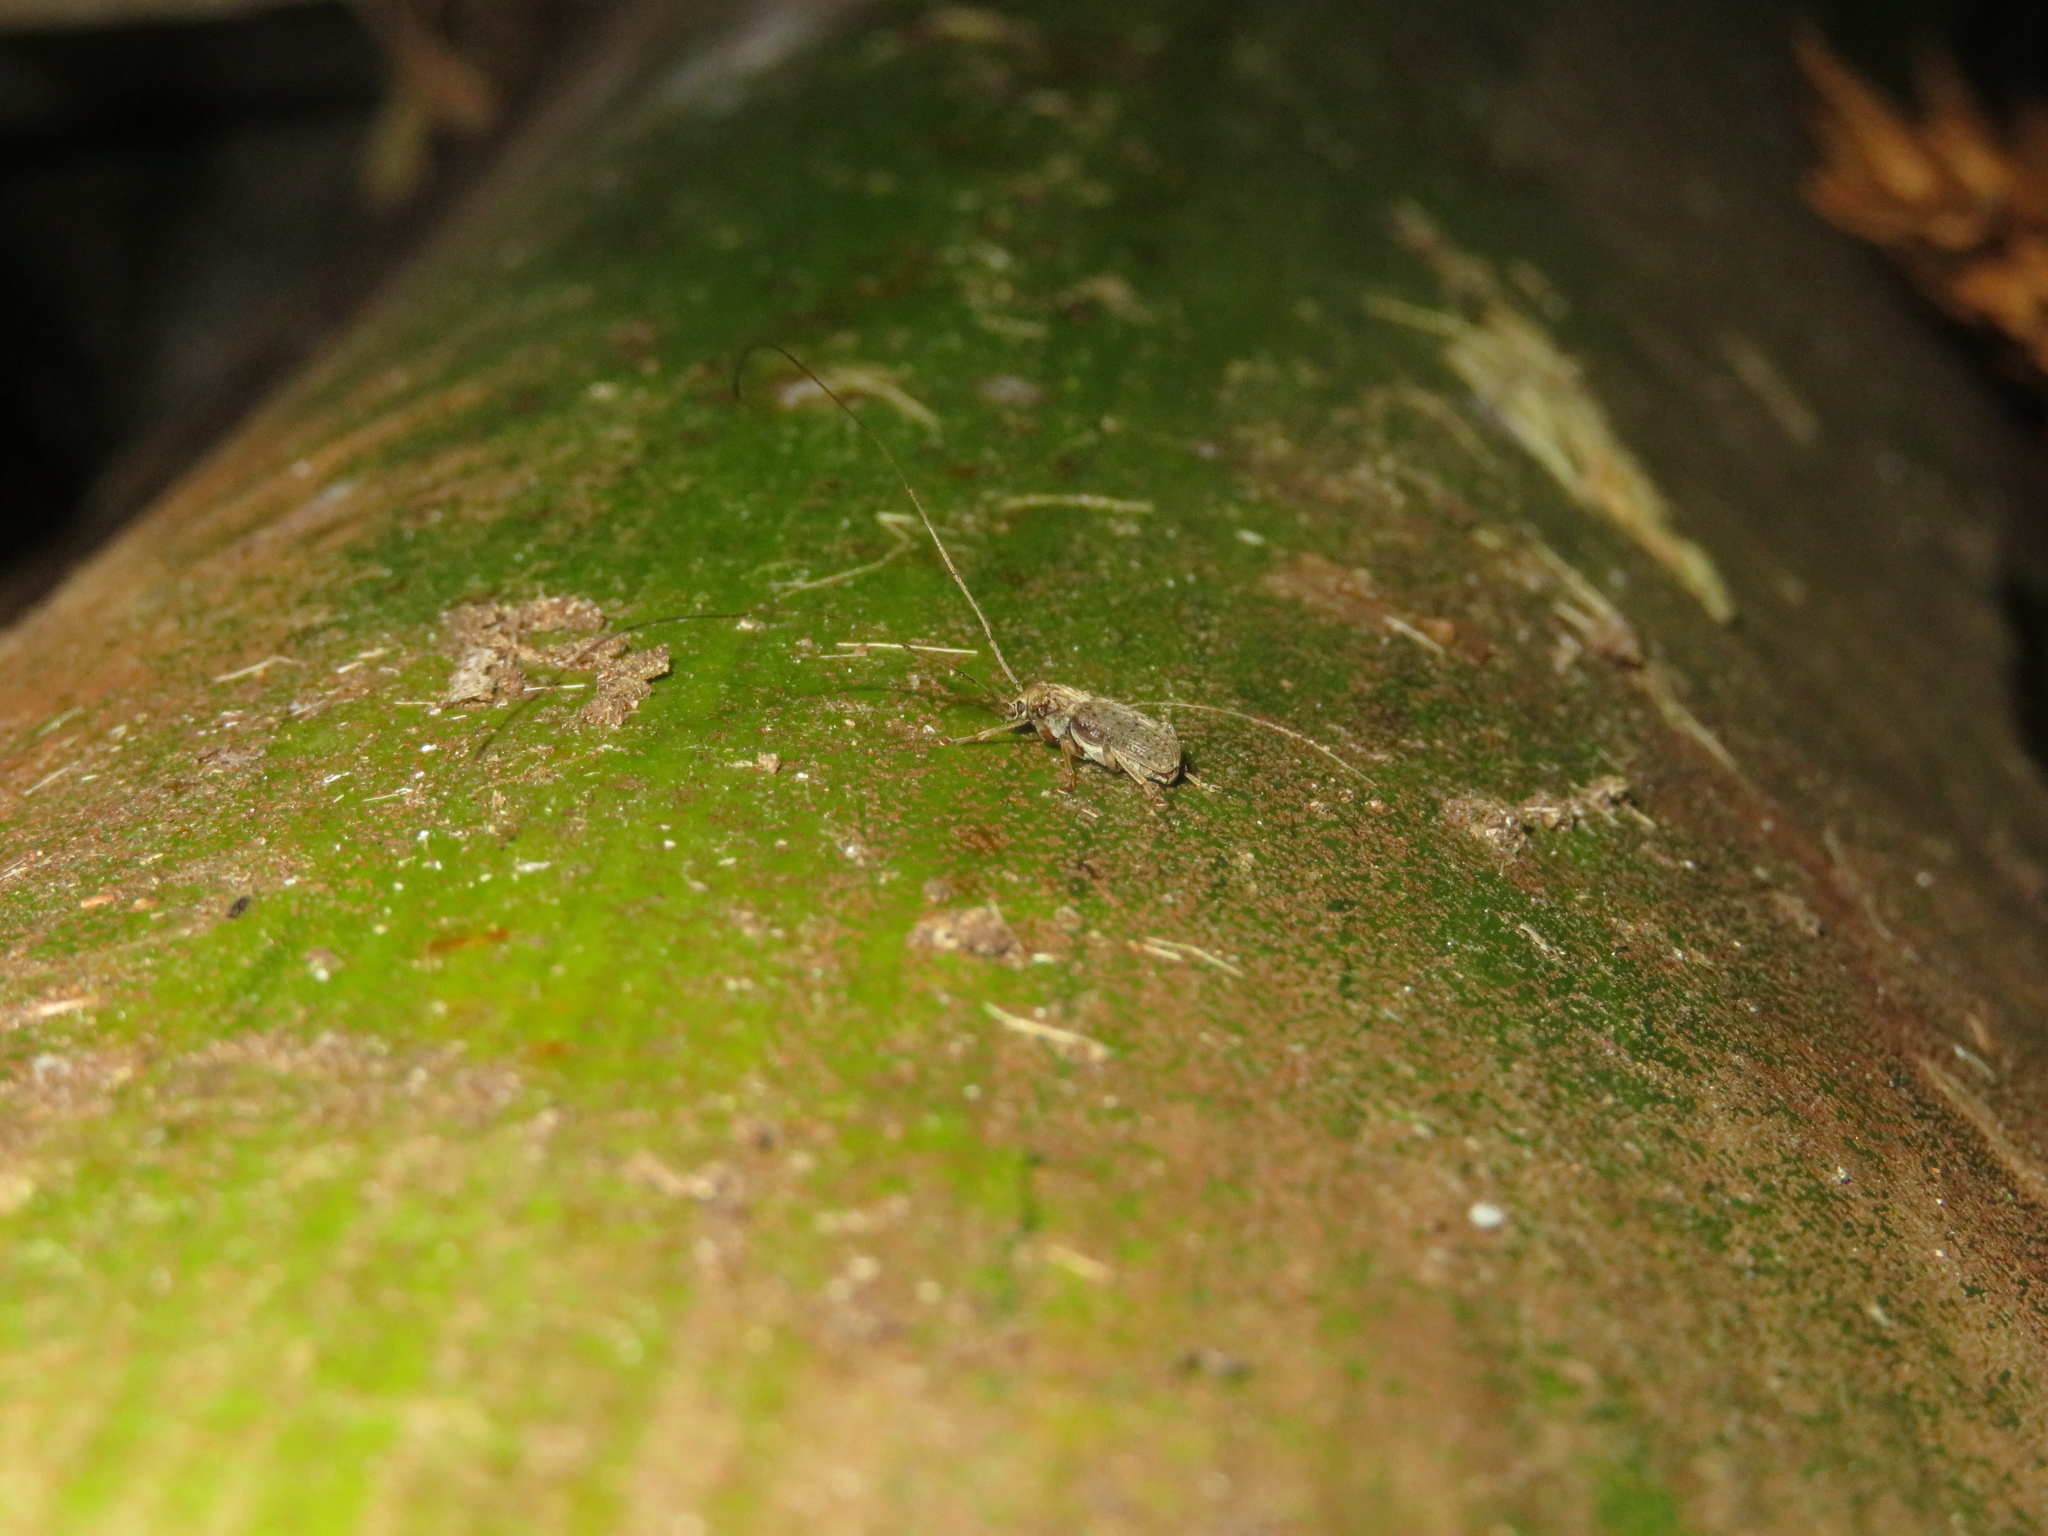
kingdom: Animalia
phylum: Arthropoda
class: Insecta
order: Coleoptera
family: Anthribidae
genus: Arecopais
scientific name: Arecopais spectabilis
